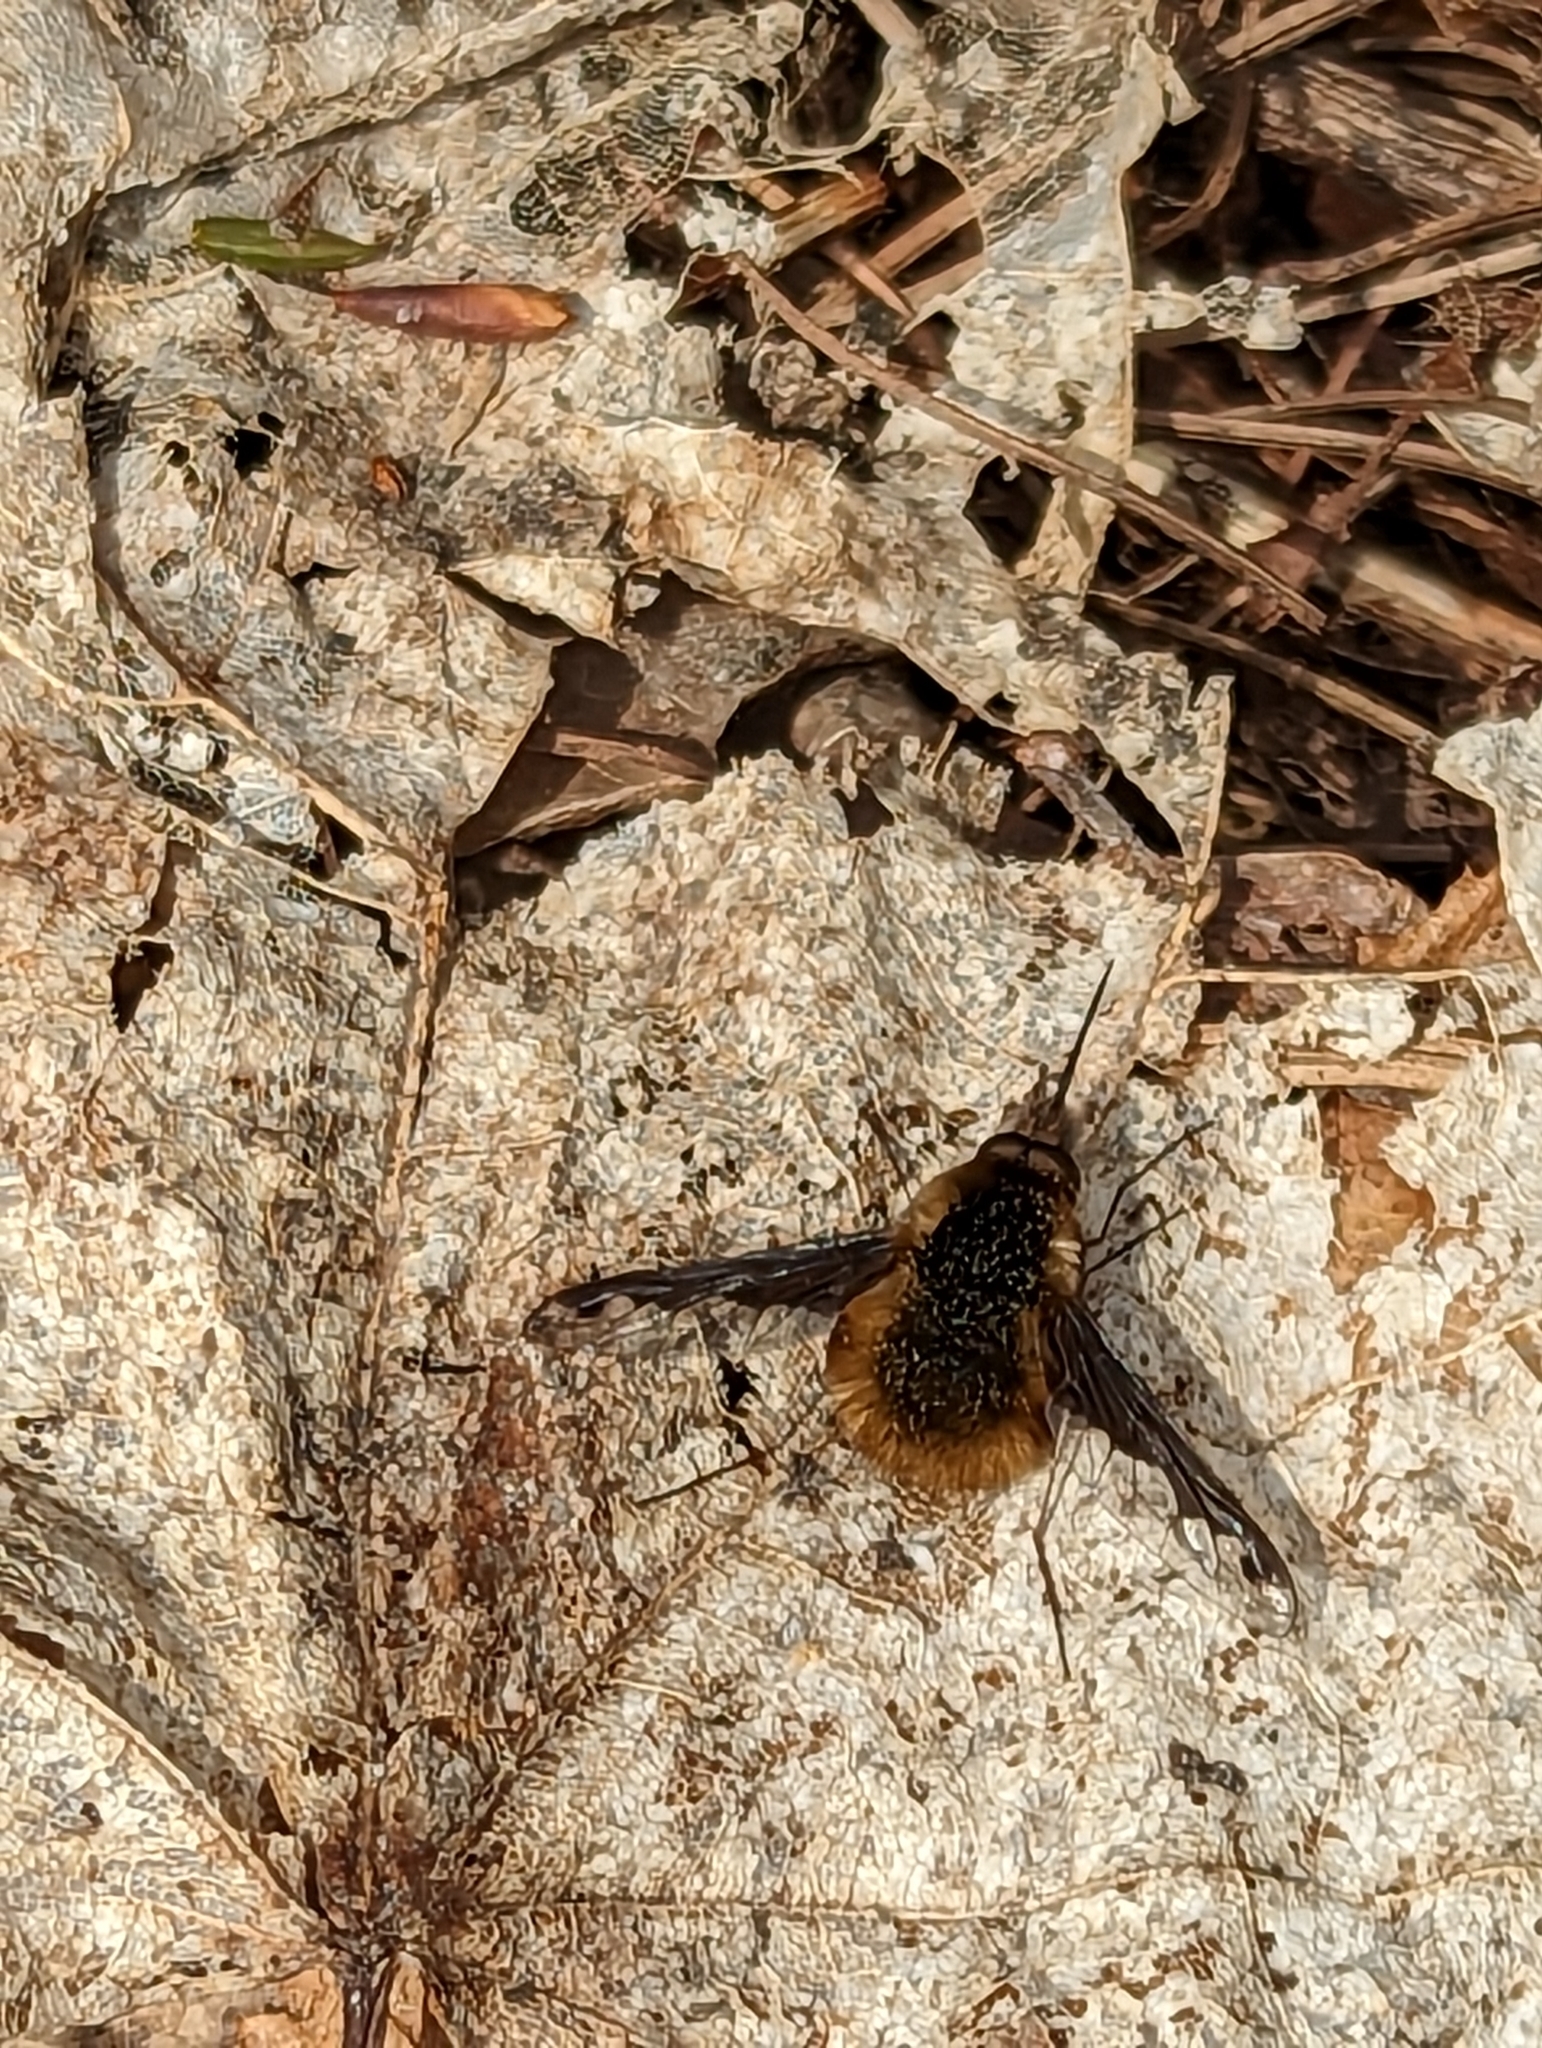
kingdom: Animalia
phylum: Arthropoda
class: Insecta
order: Diptera
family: Bombyliidae
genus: Bombylius
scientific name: Bombylius major
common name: Bee fly
